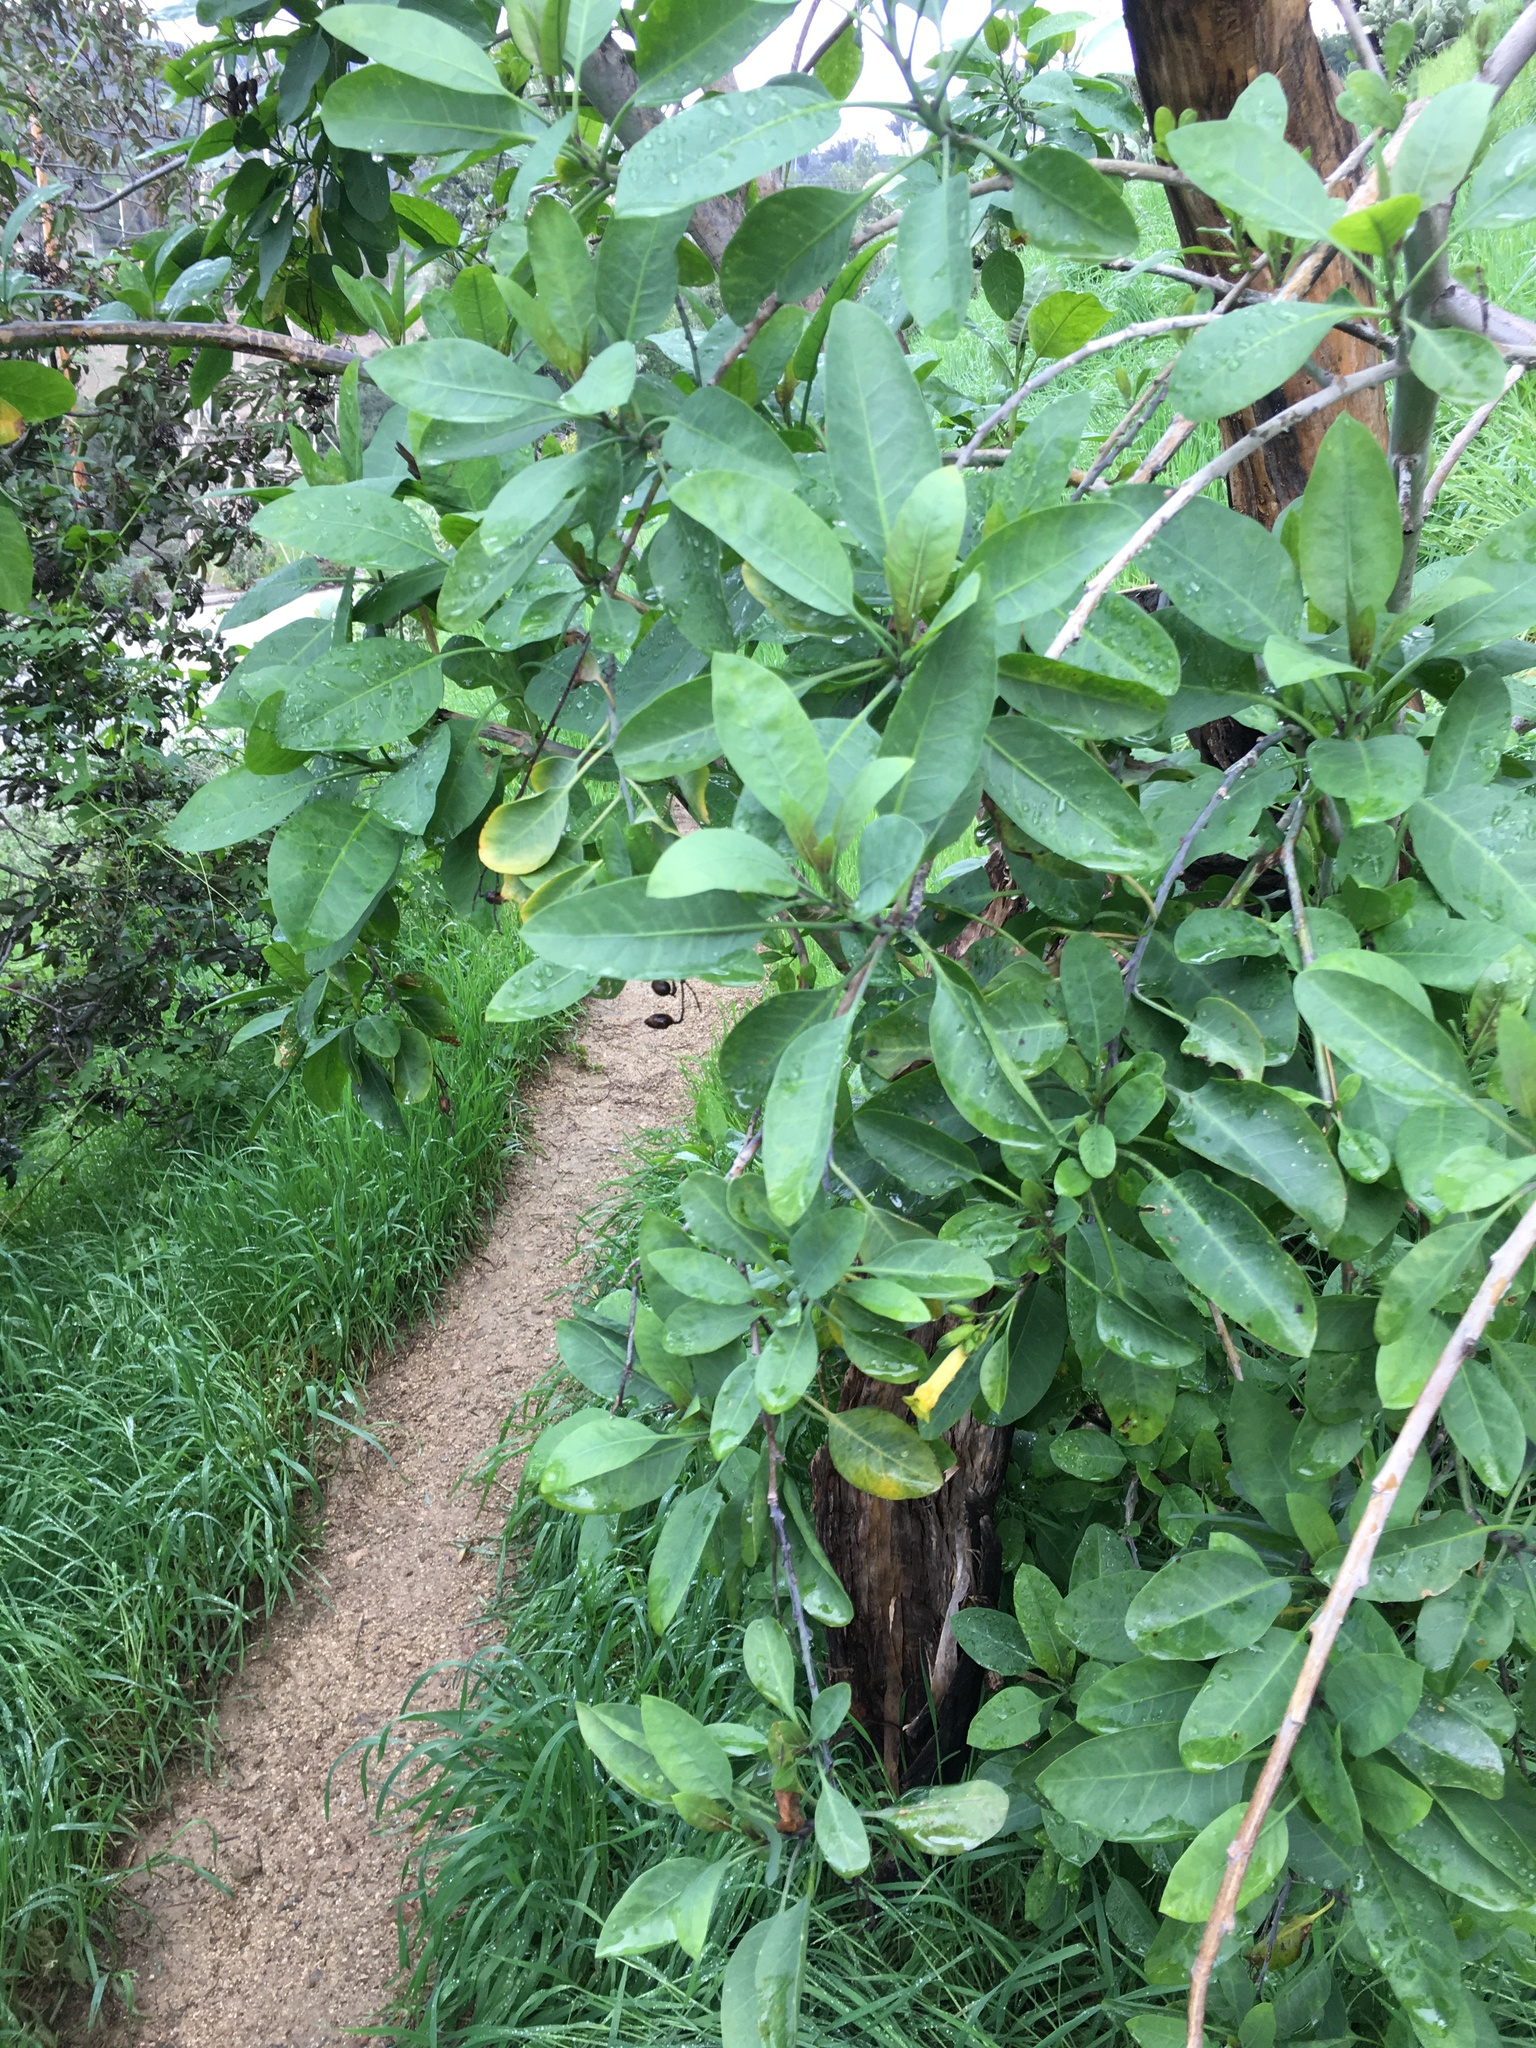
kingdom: Plantae
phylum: Tracheophyta
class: Magnoliopsida
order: Solanales
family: Solanaceae
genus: Nicotiana
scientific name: Nicotiana glauca
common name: Tree tobacco
